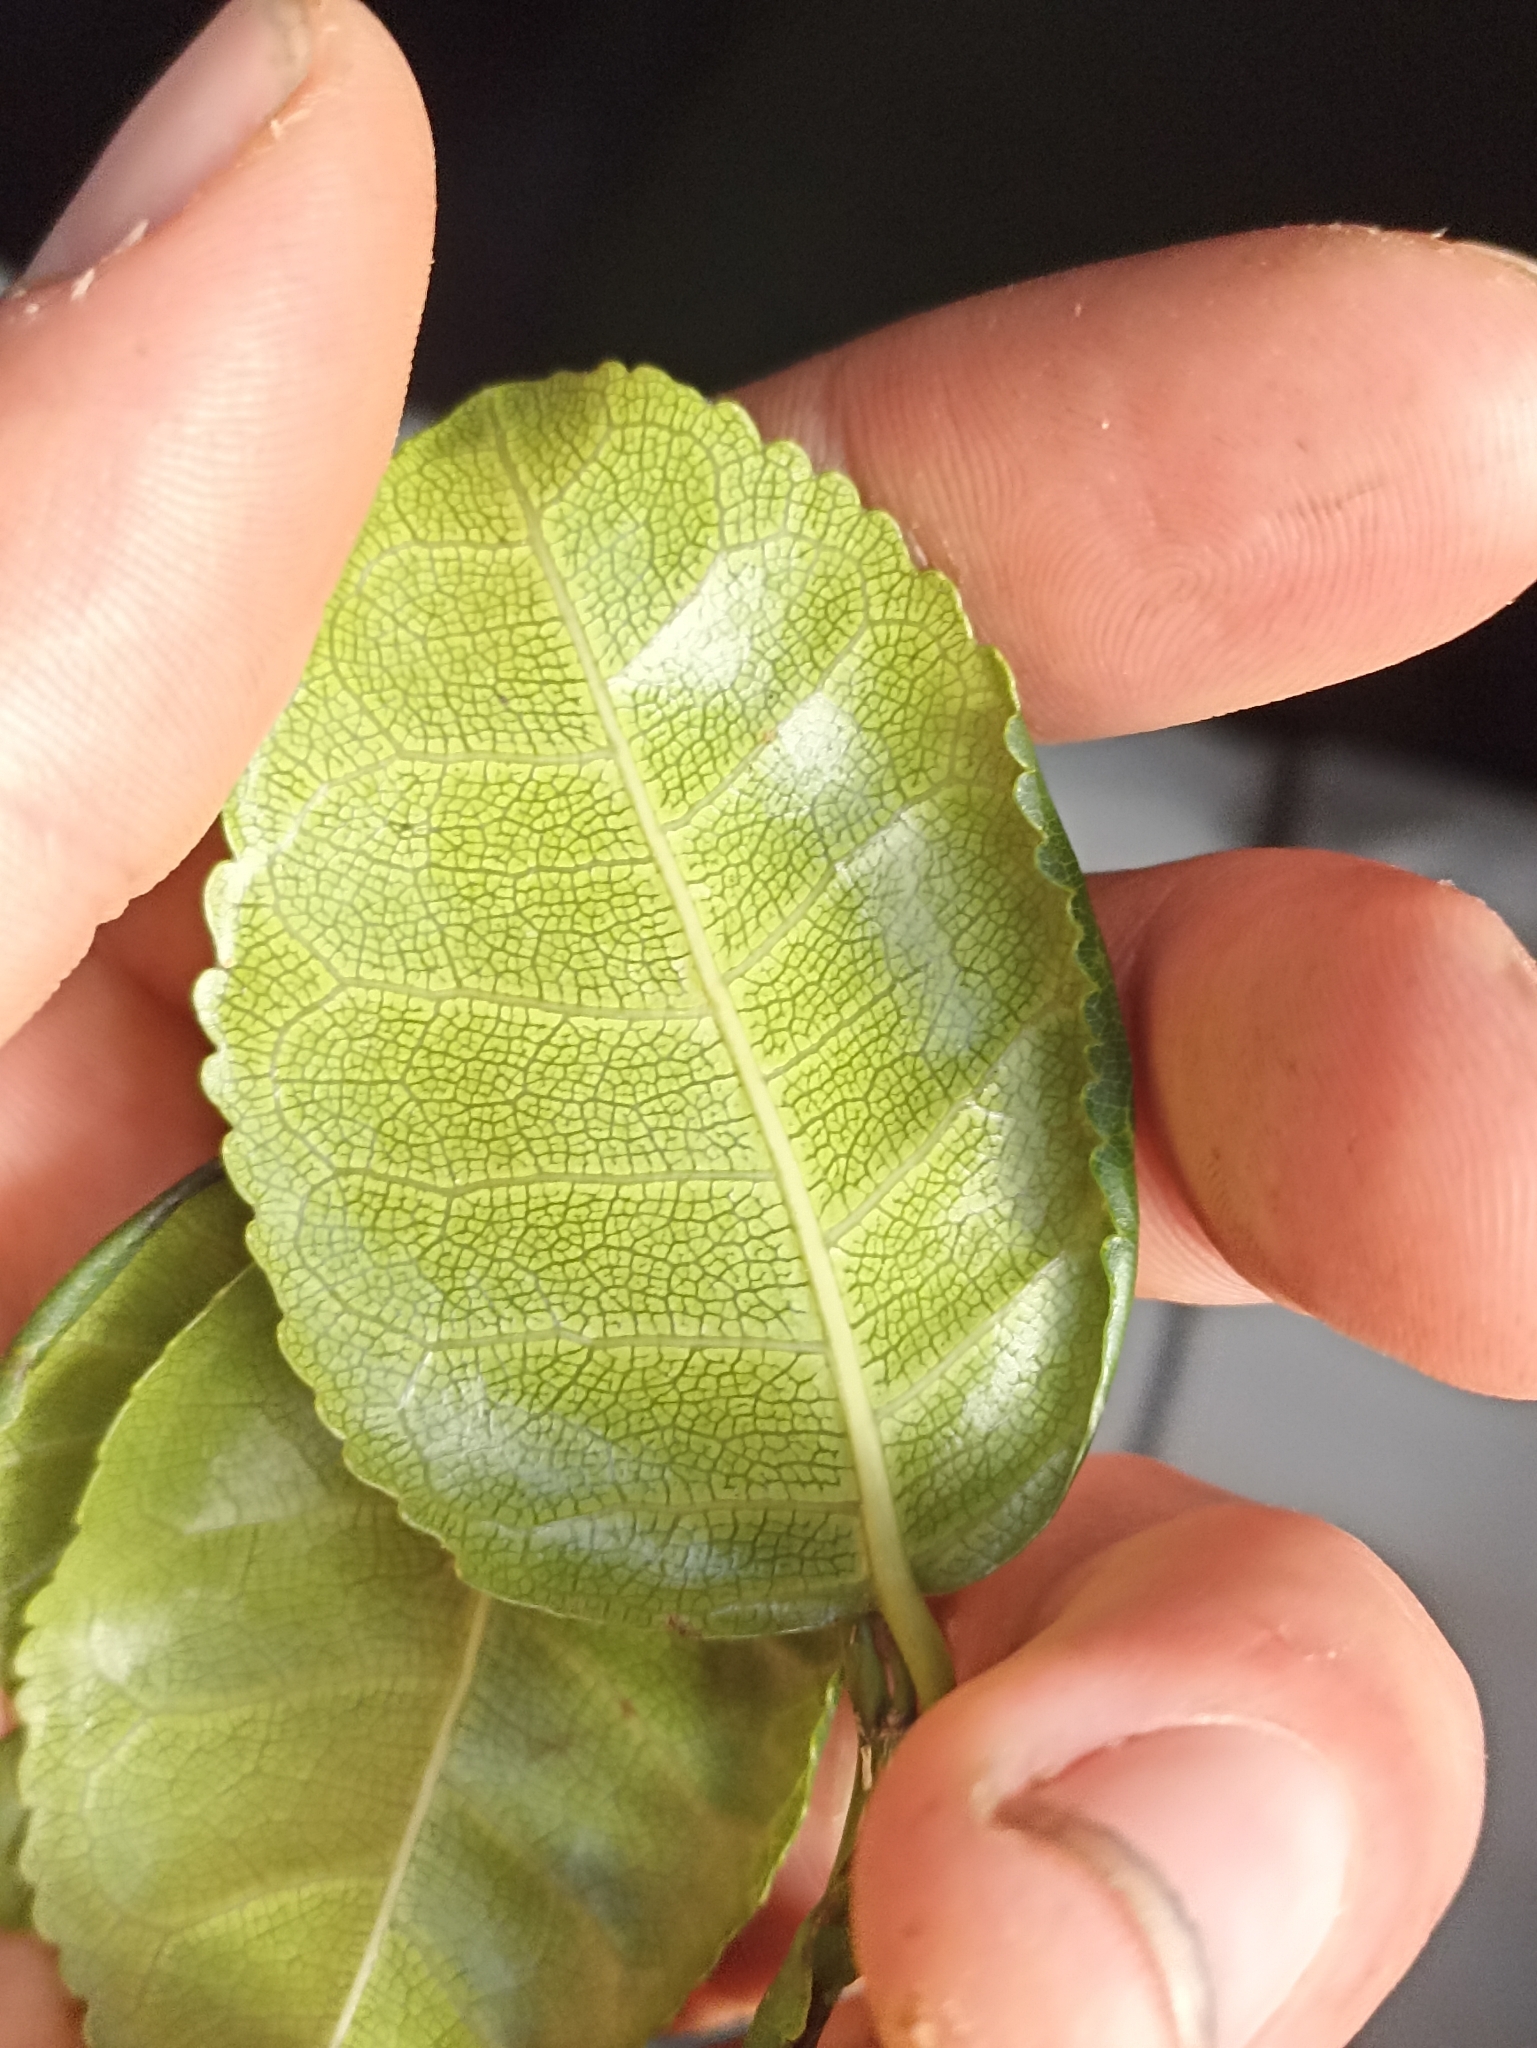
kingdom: Plantae
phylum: Tracheophyta
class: Magnoliopsida
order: Rosales
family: Moraceae
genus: Paratrophis
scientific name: Paratrophis banksii
